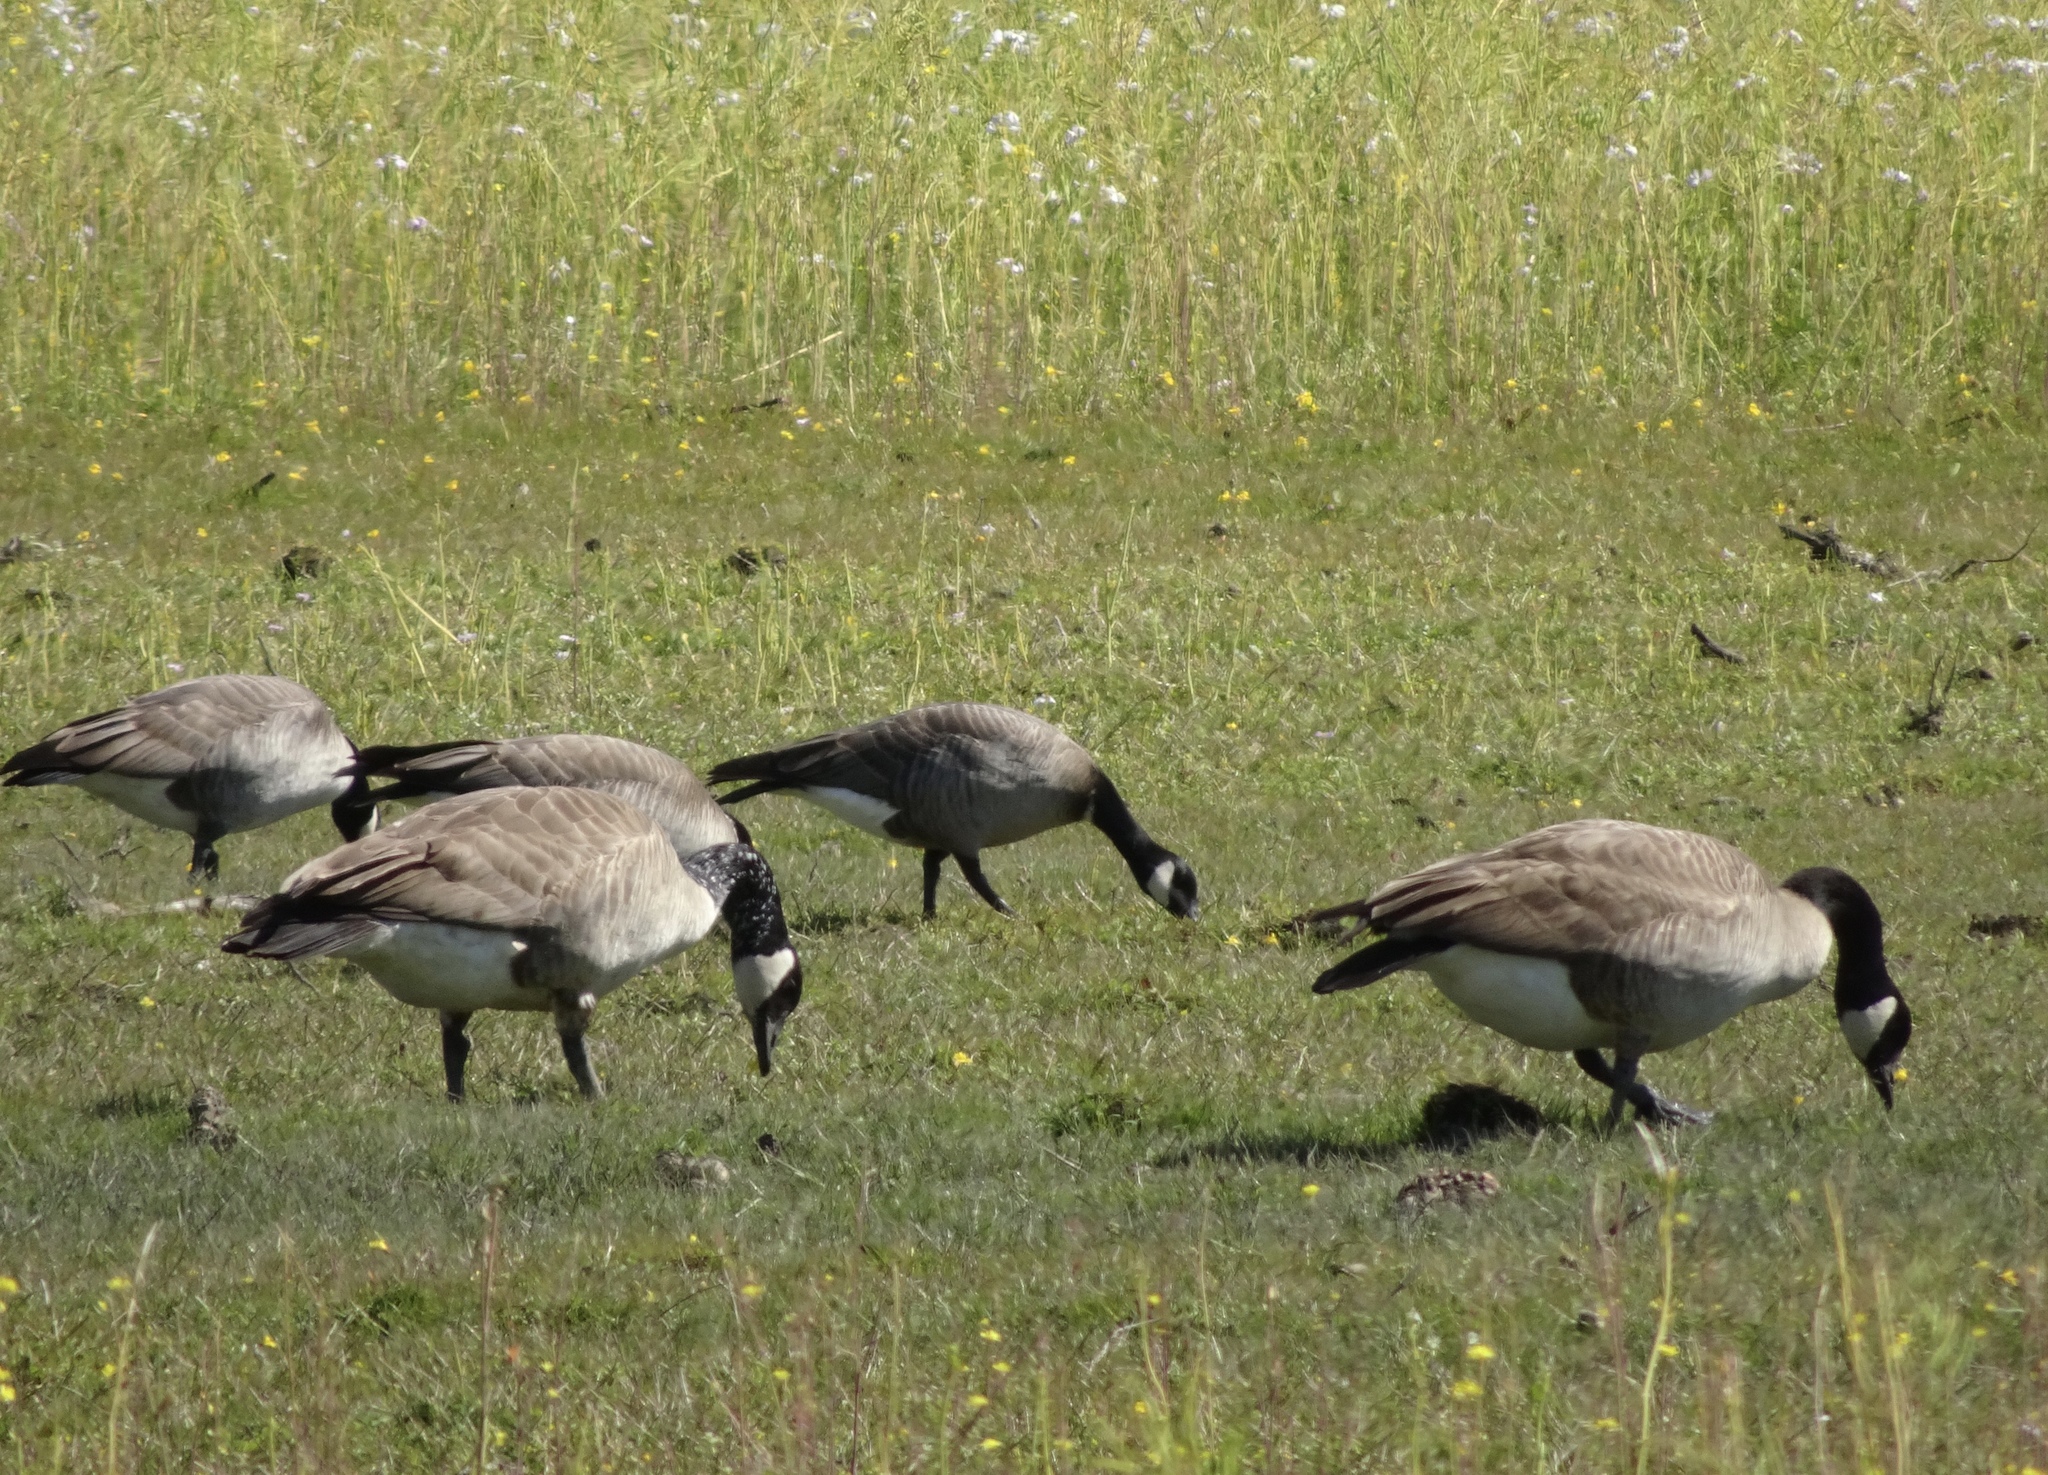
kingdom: Animalia
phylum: Chordata
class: Aves
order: Anseriformes
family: Anatidae
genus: Branta
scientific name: Branta canadensis
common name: Canada goose
